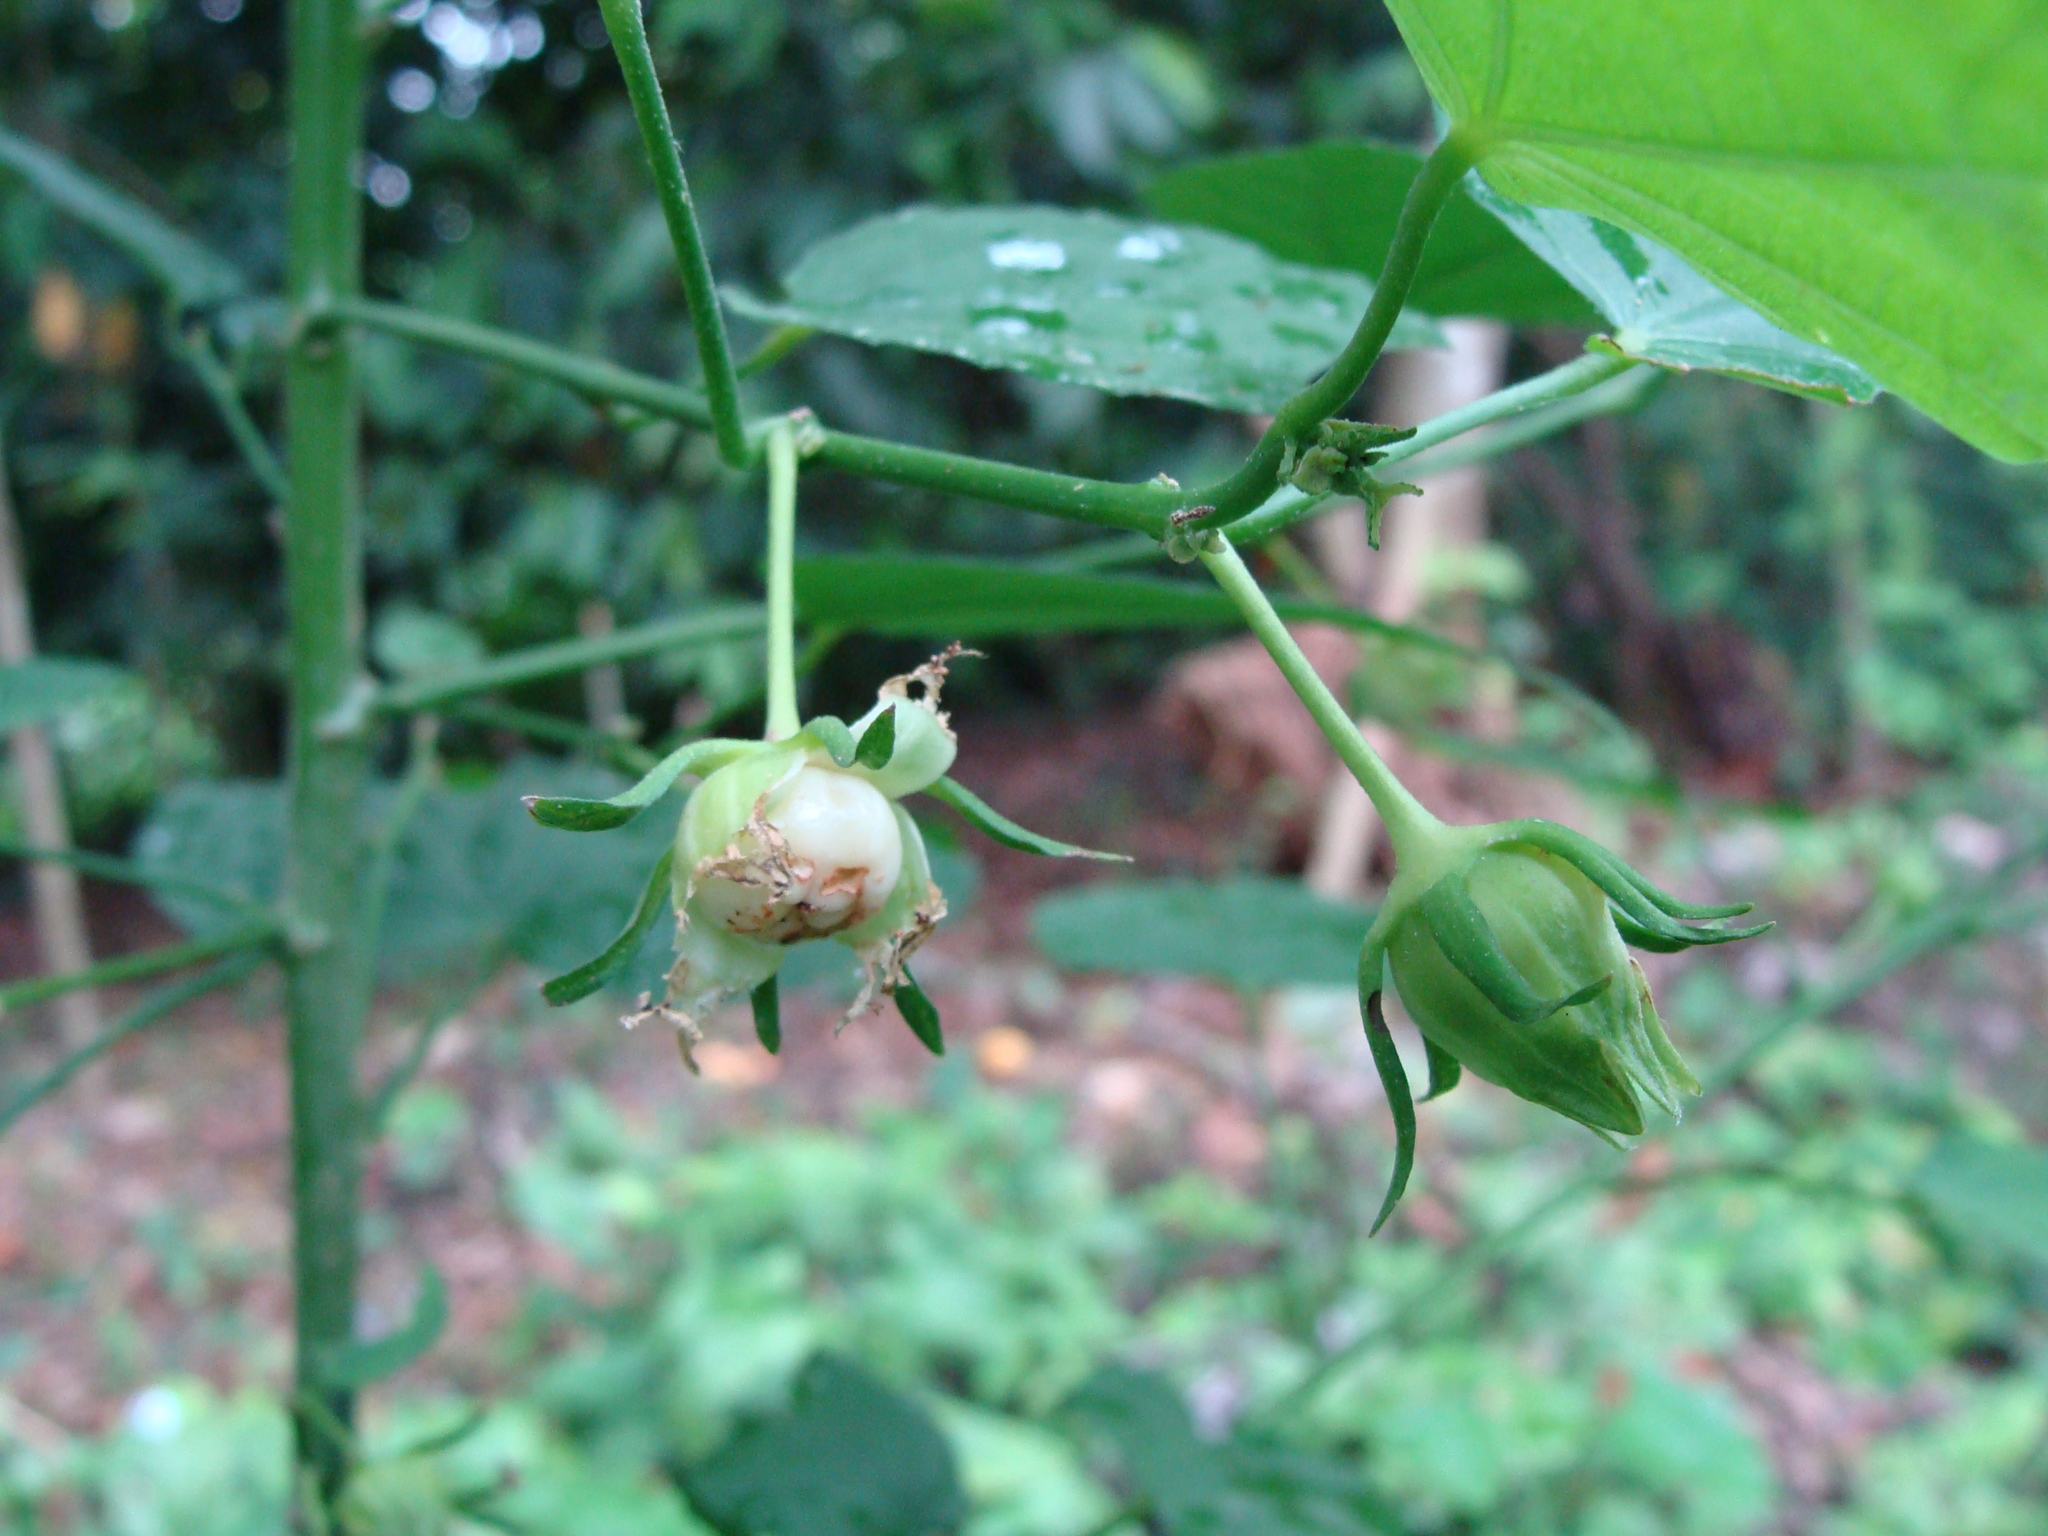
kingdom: Plantae
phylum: Tracheophyta
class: Magnoliopsida
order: Malvales
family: Malvaceae
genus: Malvaviscus
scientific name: Malvaviscus arboreus
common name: Wax mallow
